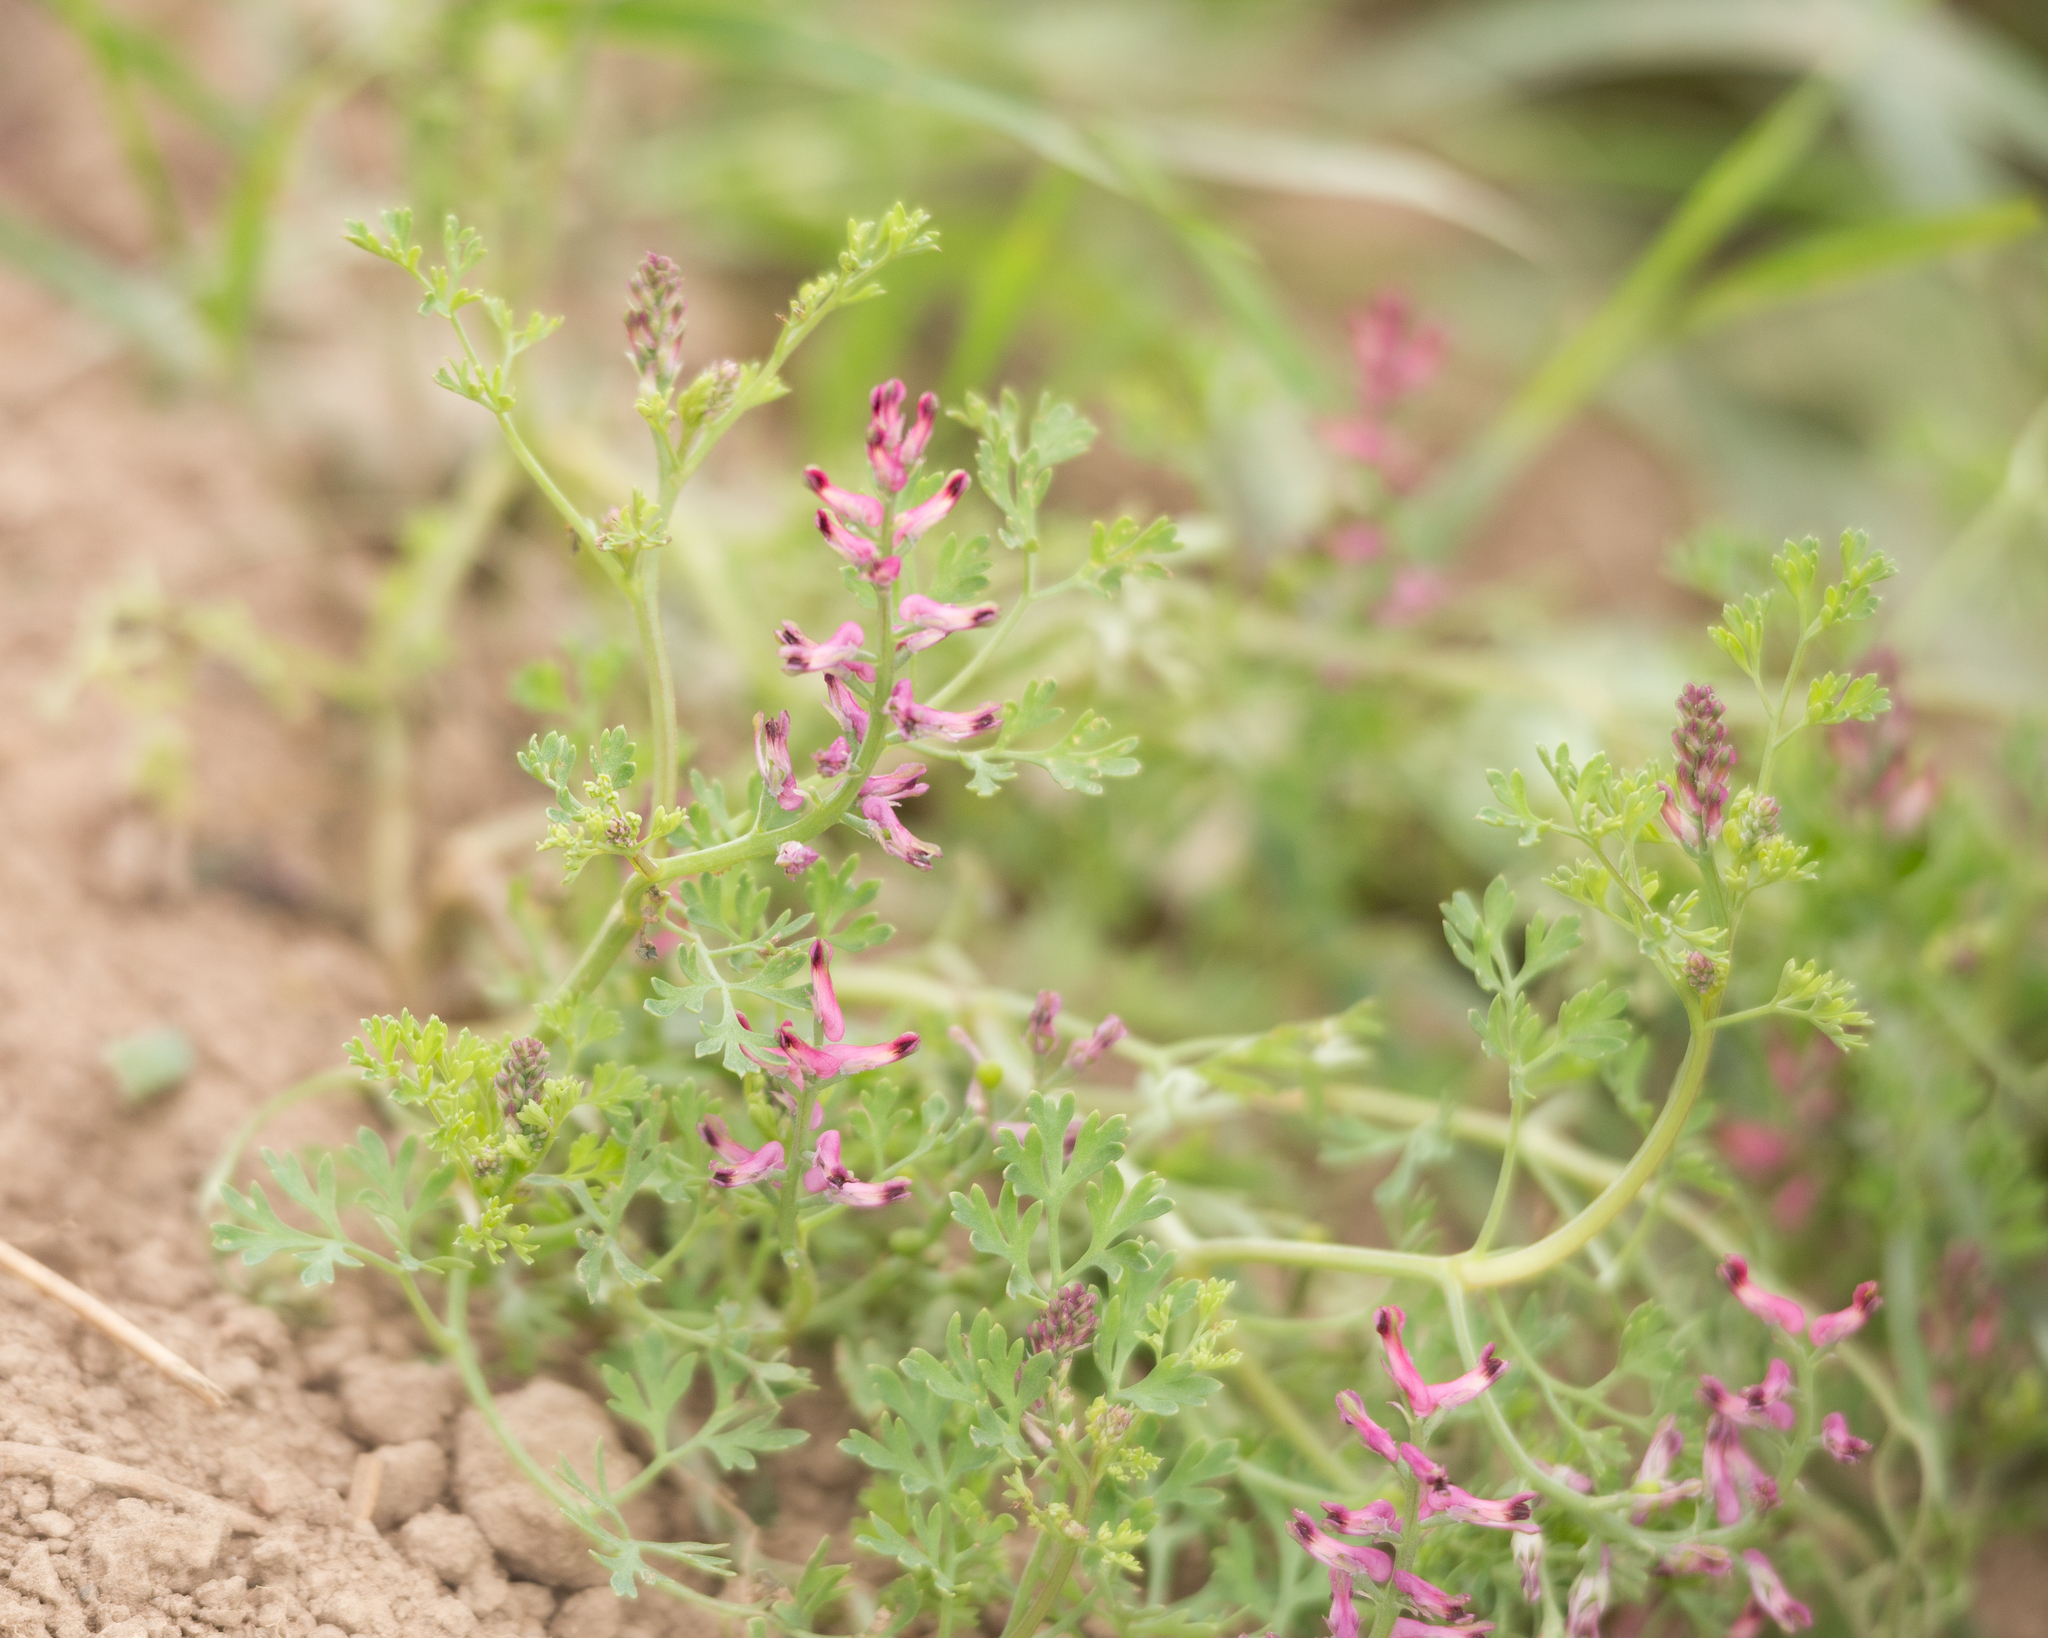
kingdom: Plantae
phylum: Tracheophyta
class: Magnoliopsida
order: Ranunculales
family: Papaveraceae
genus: Fumaria
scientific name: Fumaria officinalis
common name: Common fumitory
